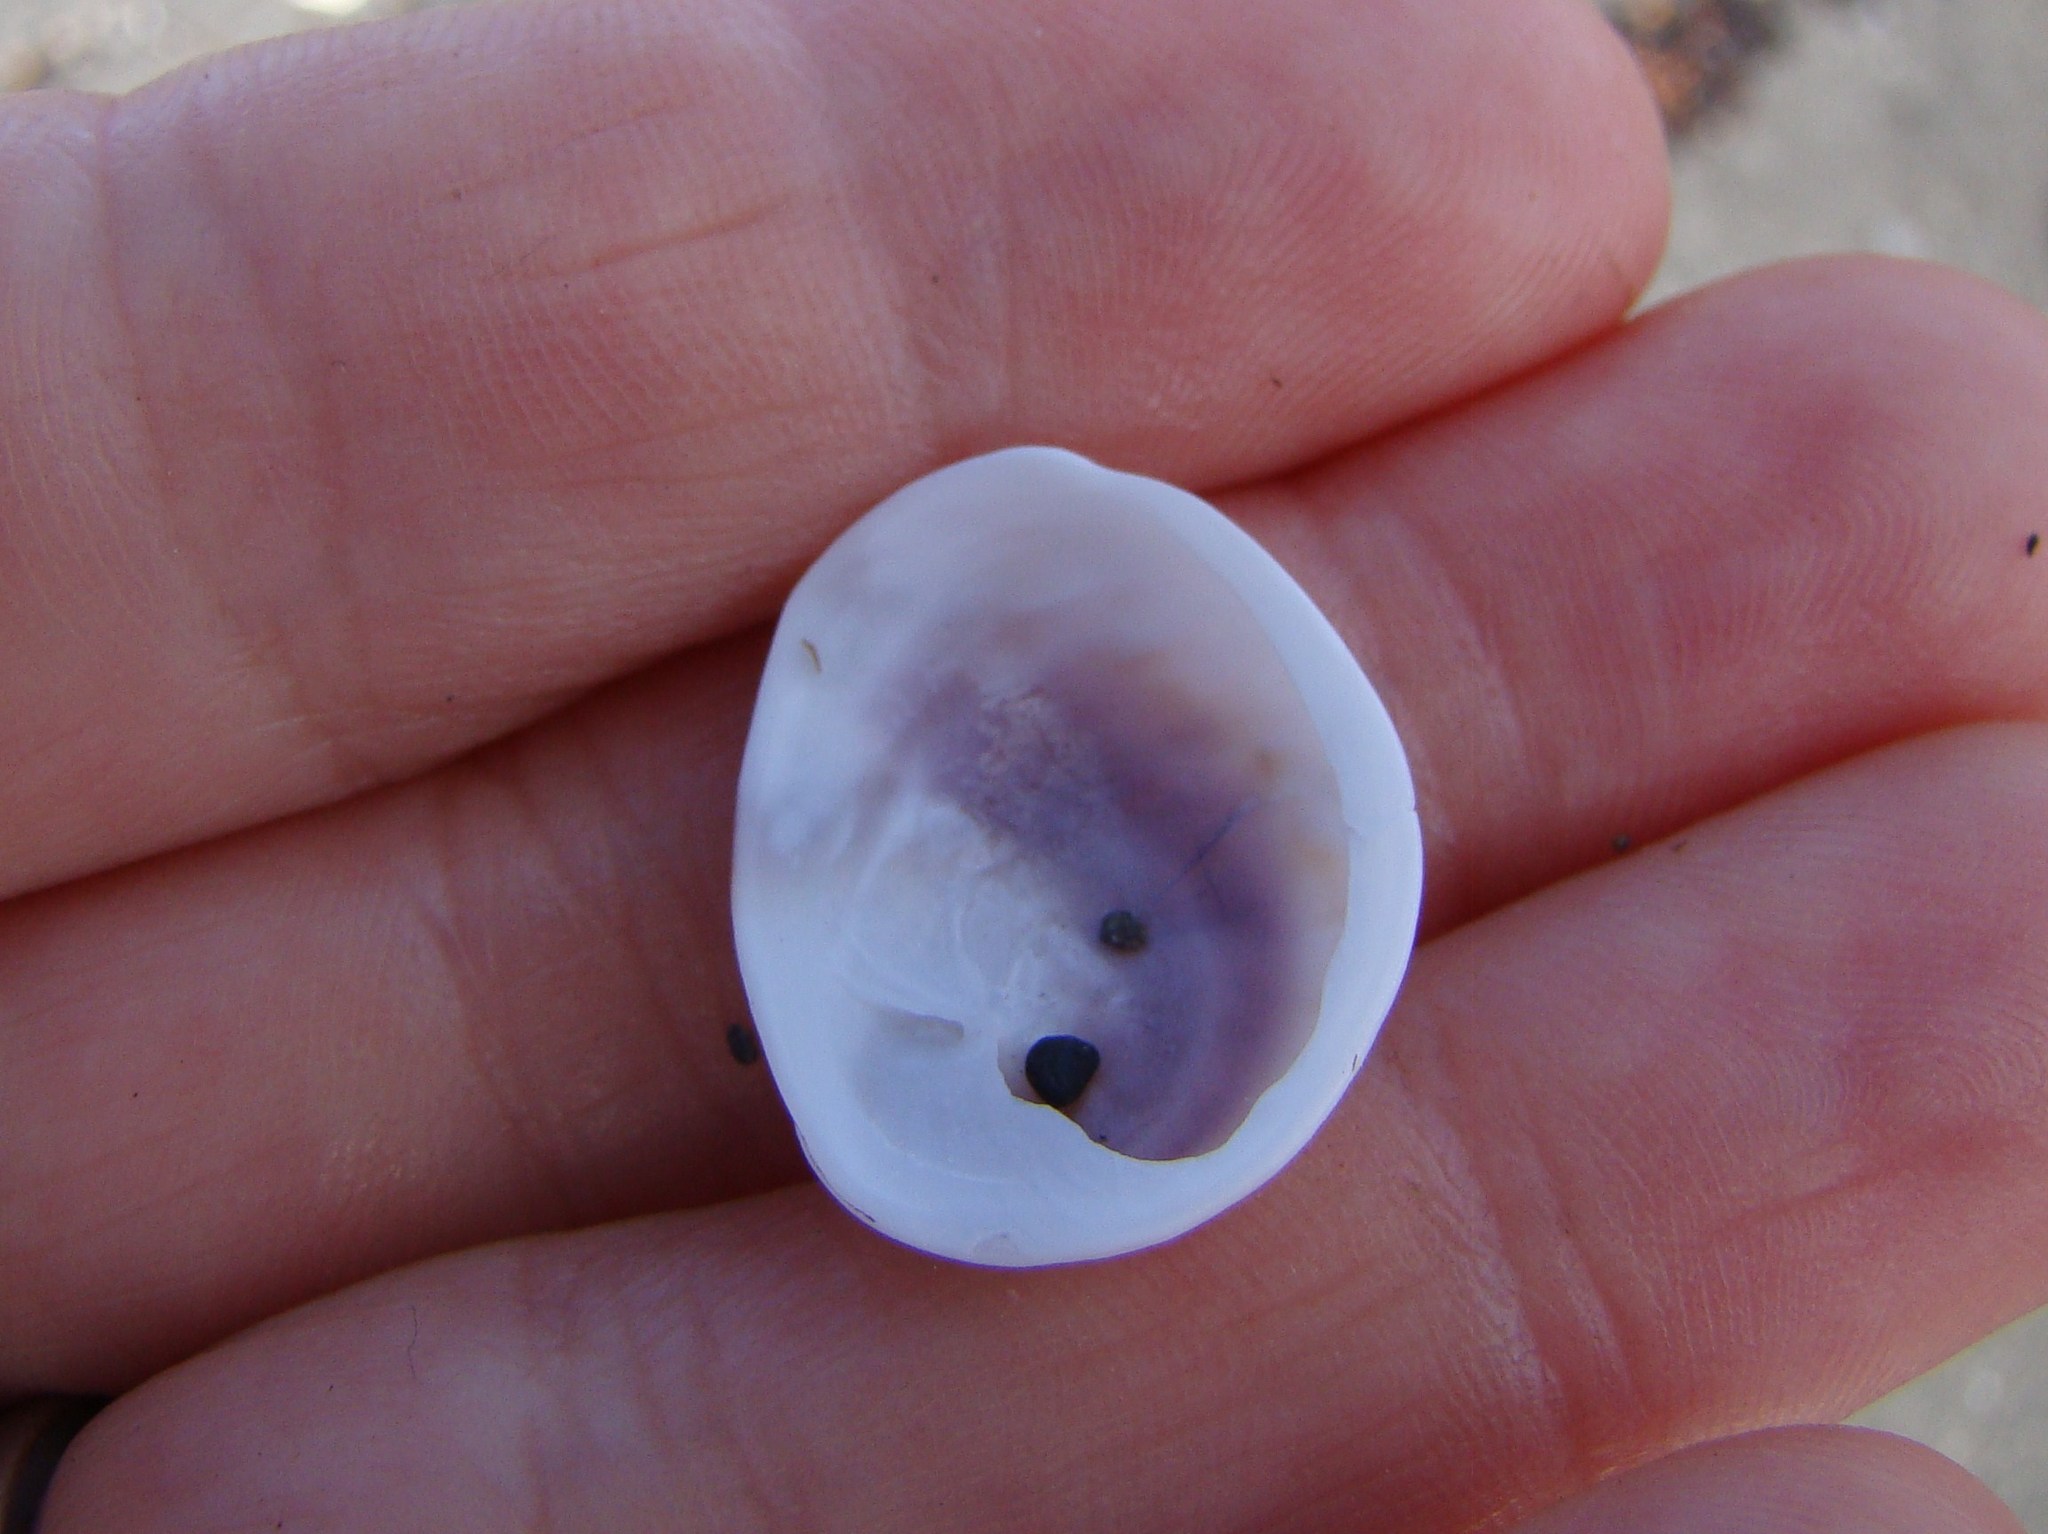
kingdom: Animalia
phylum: Mollusca
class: Gastropoda
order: Littorinimorpha
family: Calyptraeidae
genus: Sigapatella
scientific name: Sigapatella novaezelandiae
